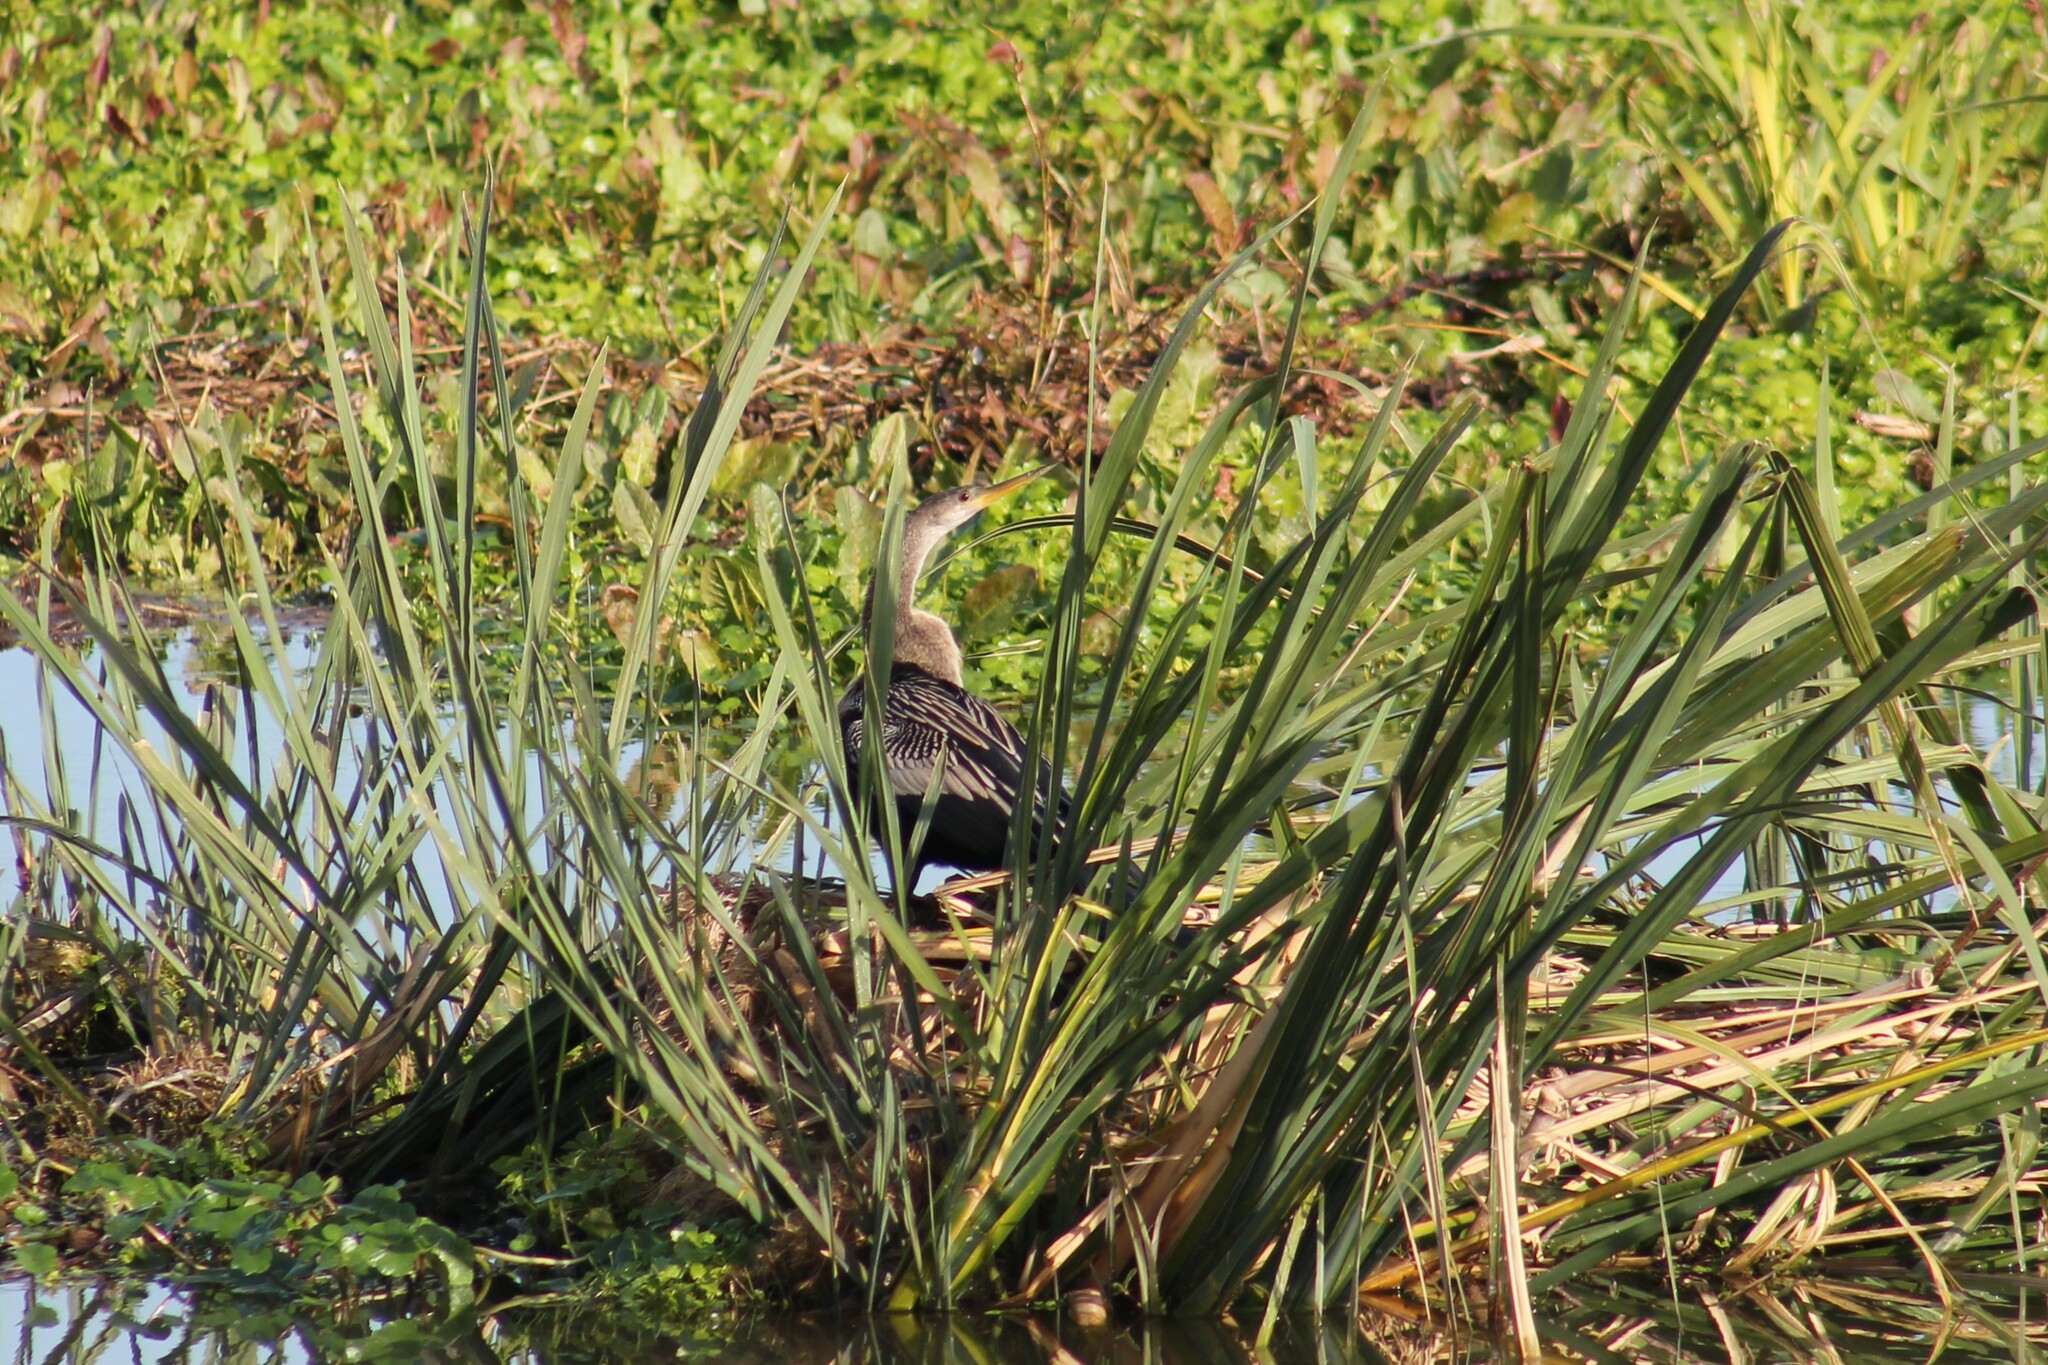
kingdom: Animalia
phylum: Chordata
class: Aves
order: Suliformes
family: Anhingidae
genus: Anhinga
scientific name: Anhinga anhinga
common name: Anhinga
